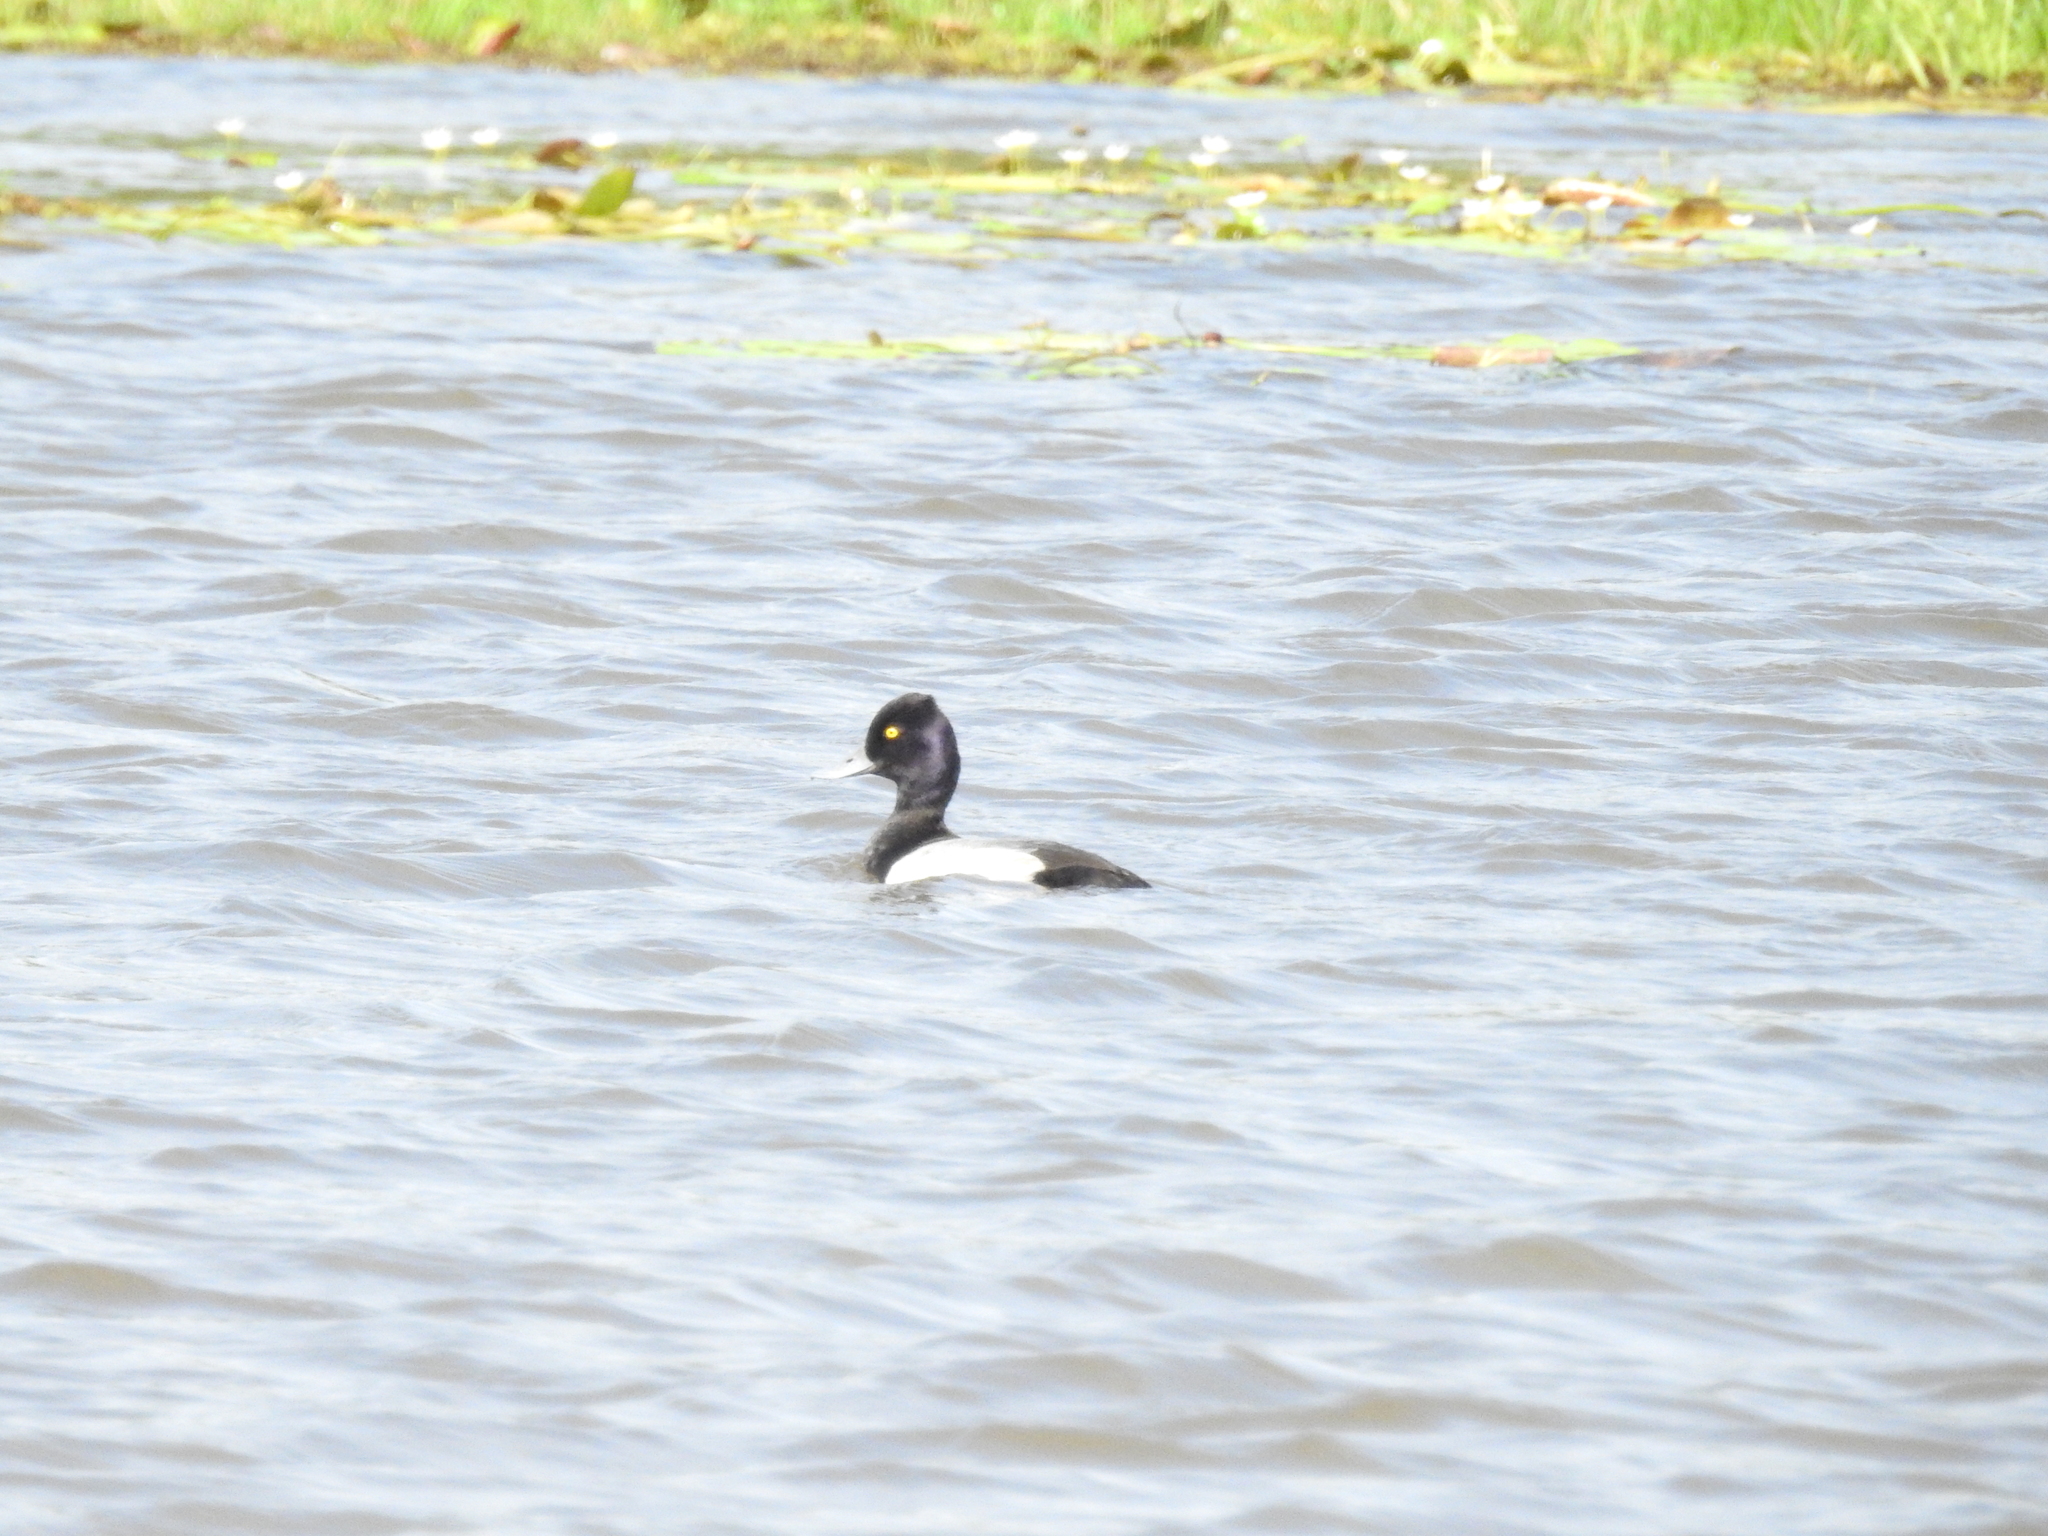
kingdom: Animalia
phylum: Chordata
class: Aves
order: Anseriformes
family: Anatidae
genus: Aythya
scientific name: Aythya affinis
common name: Lesser scaup
